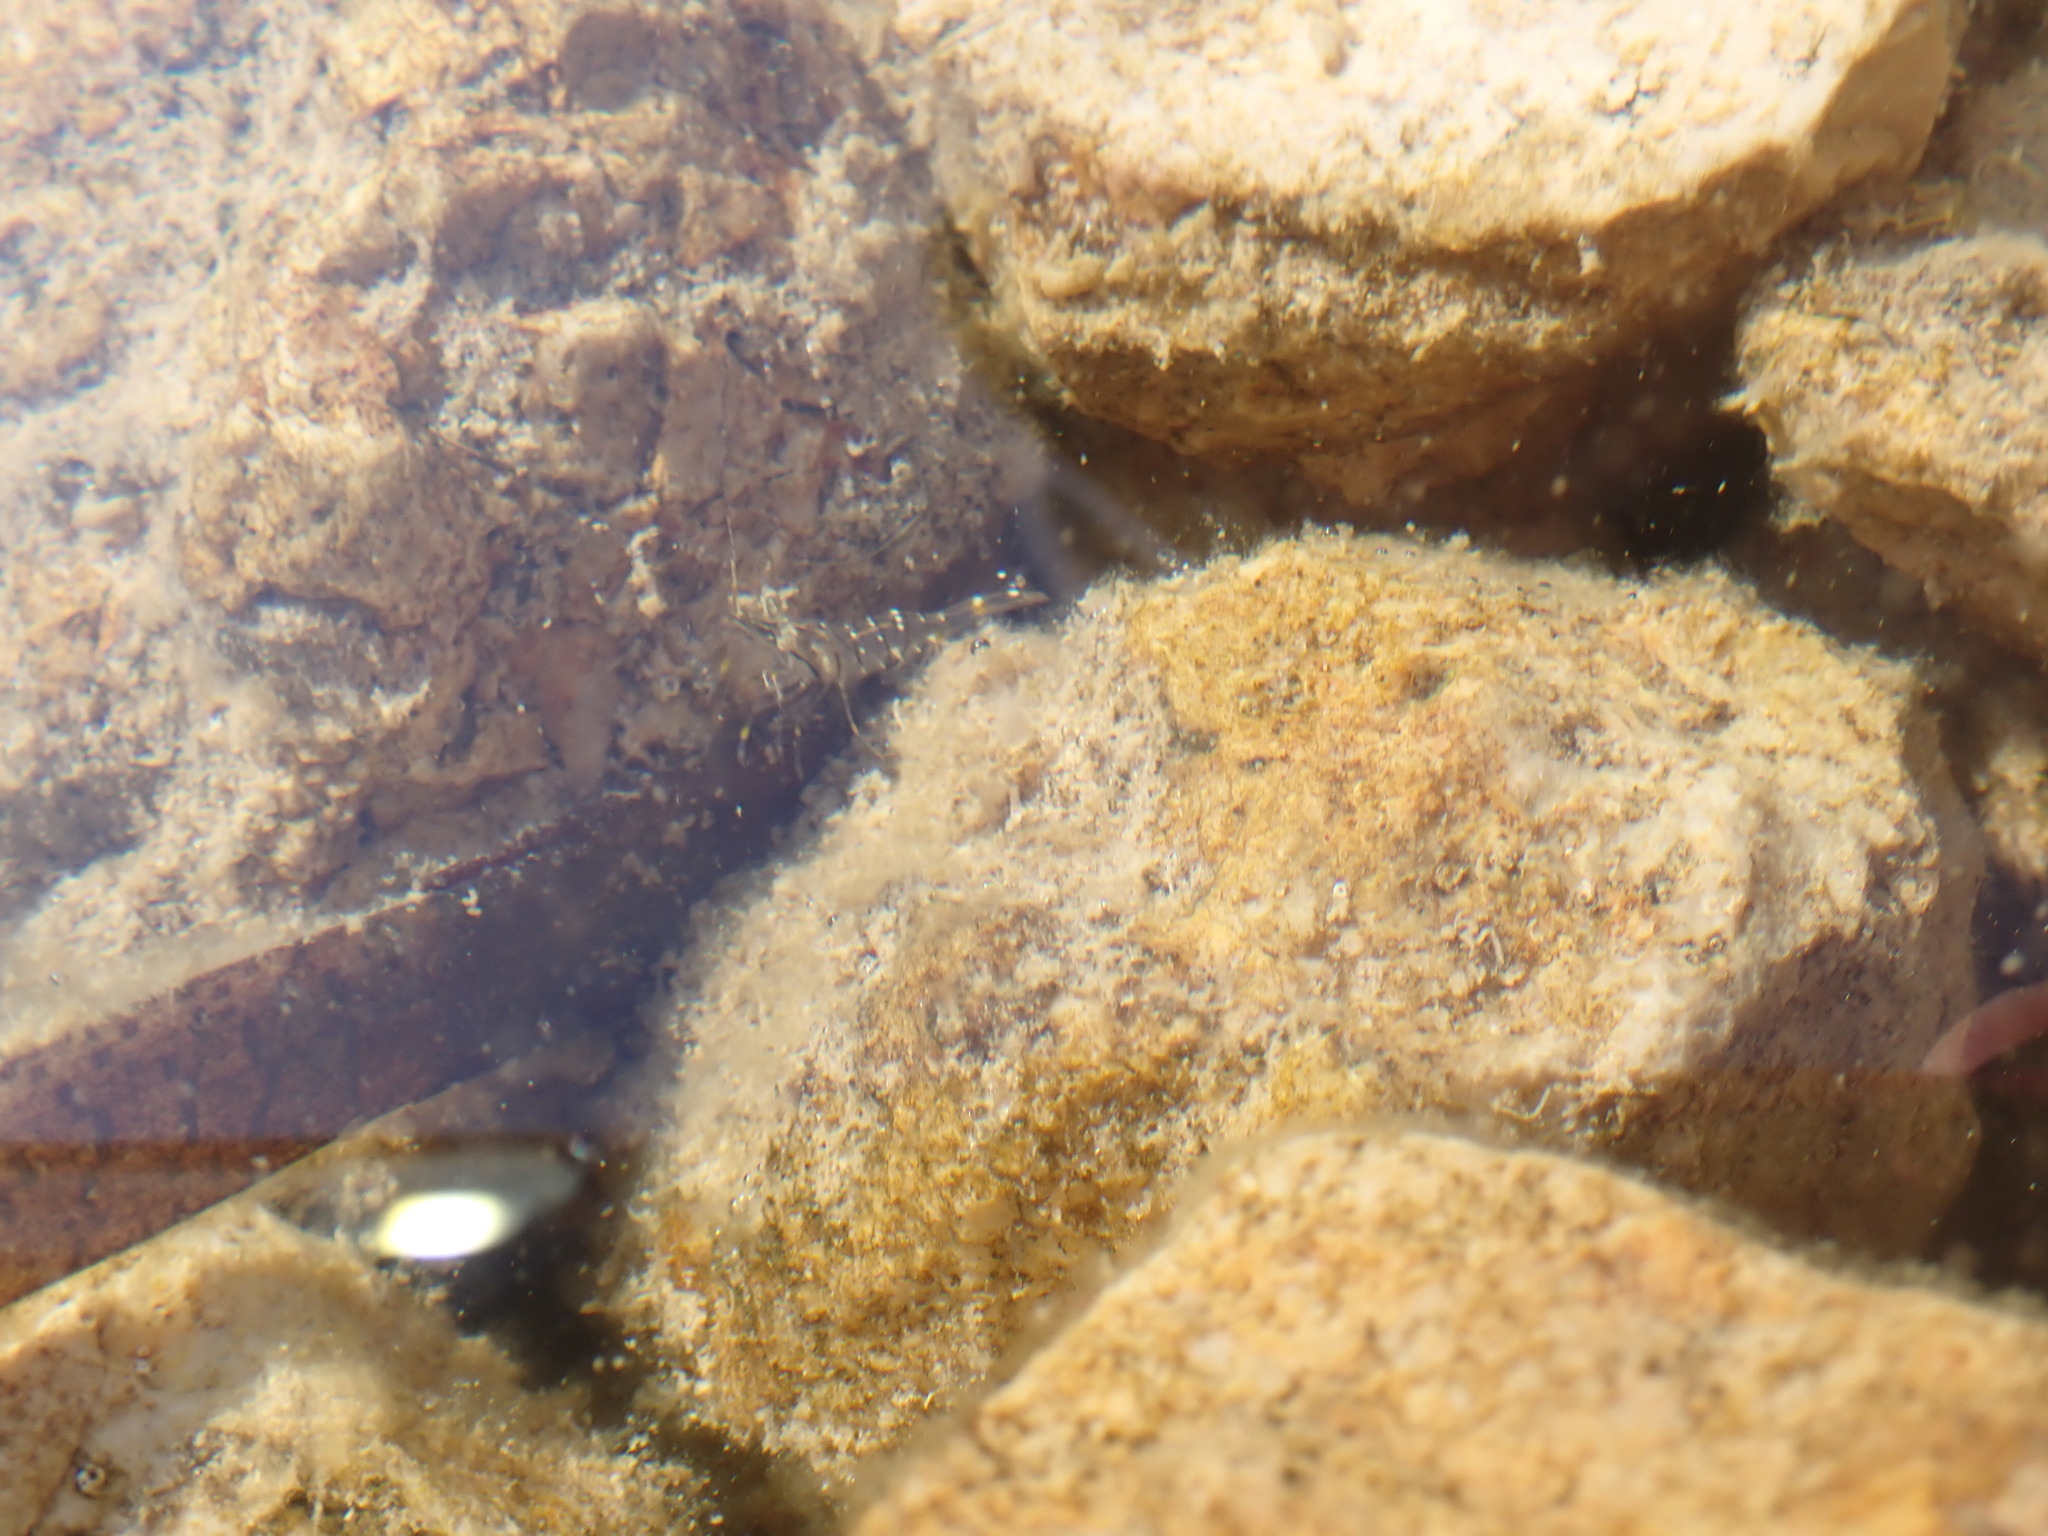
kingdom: Animalia
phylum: Arthropoda
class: Malacostraca
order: Decapoda
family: Palaemonidae
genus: Palaemon
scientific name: Palaemon elegans
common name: Grass prawm
